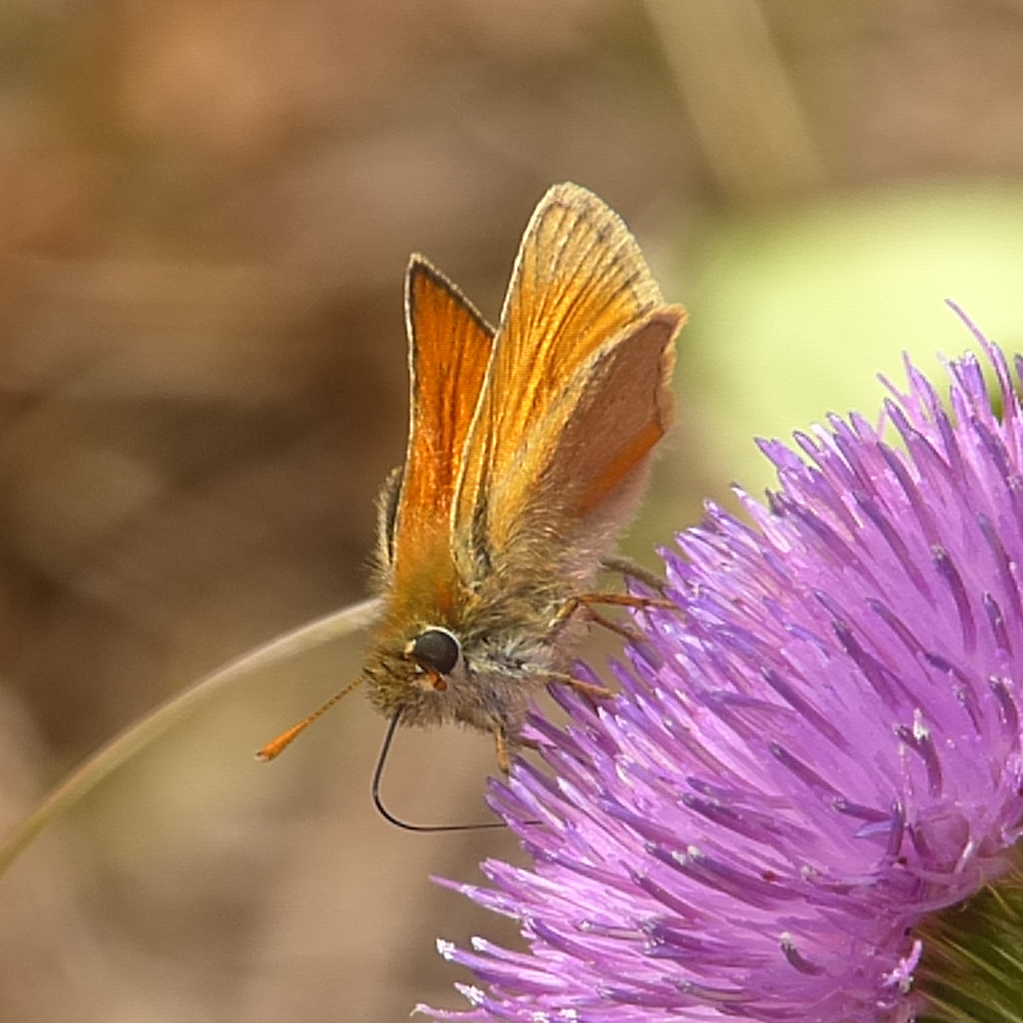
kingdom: Animalia
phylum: Arthropoda
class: Insecta
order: Lepidoptera
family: Hesperiidae
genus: Thymelicus
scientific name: Thymelicus sylvestris
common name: Small skipper
